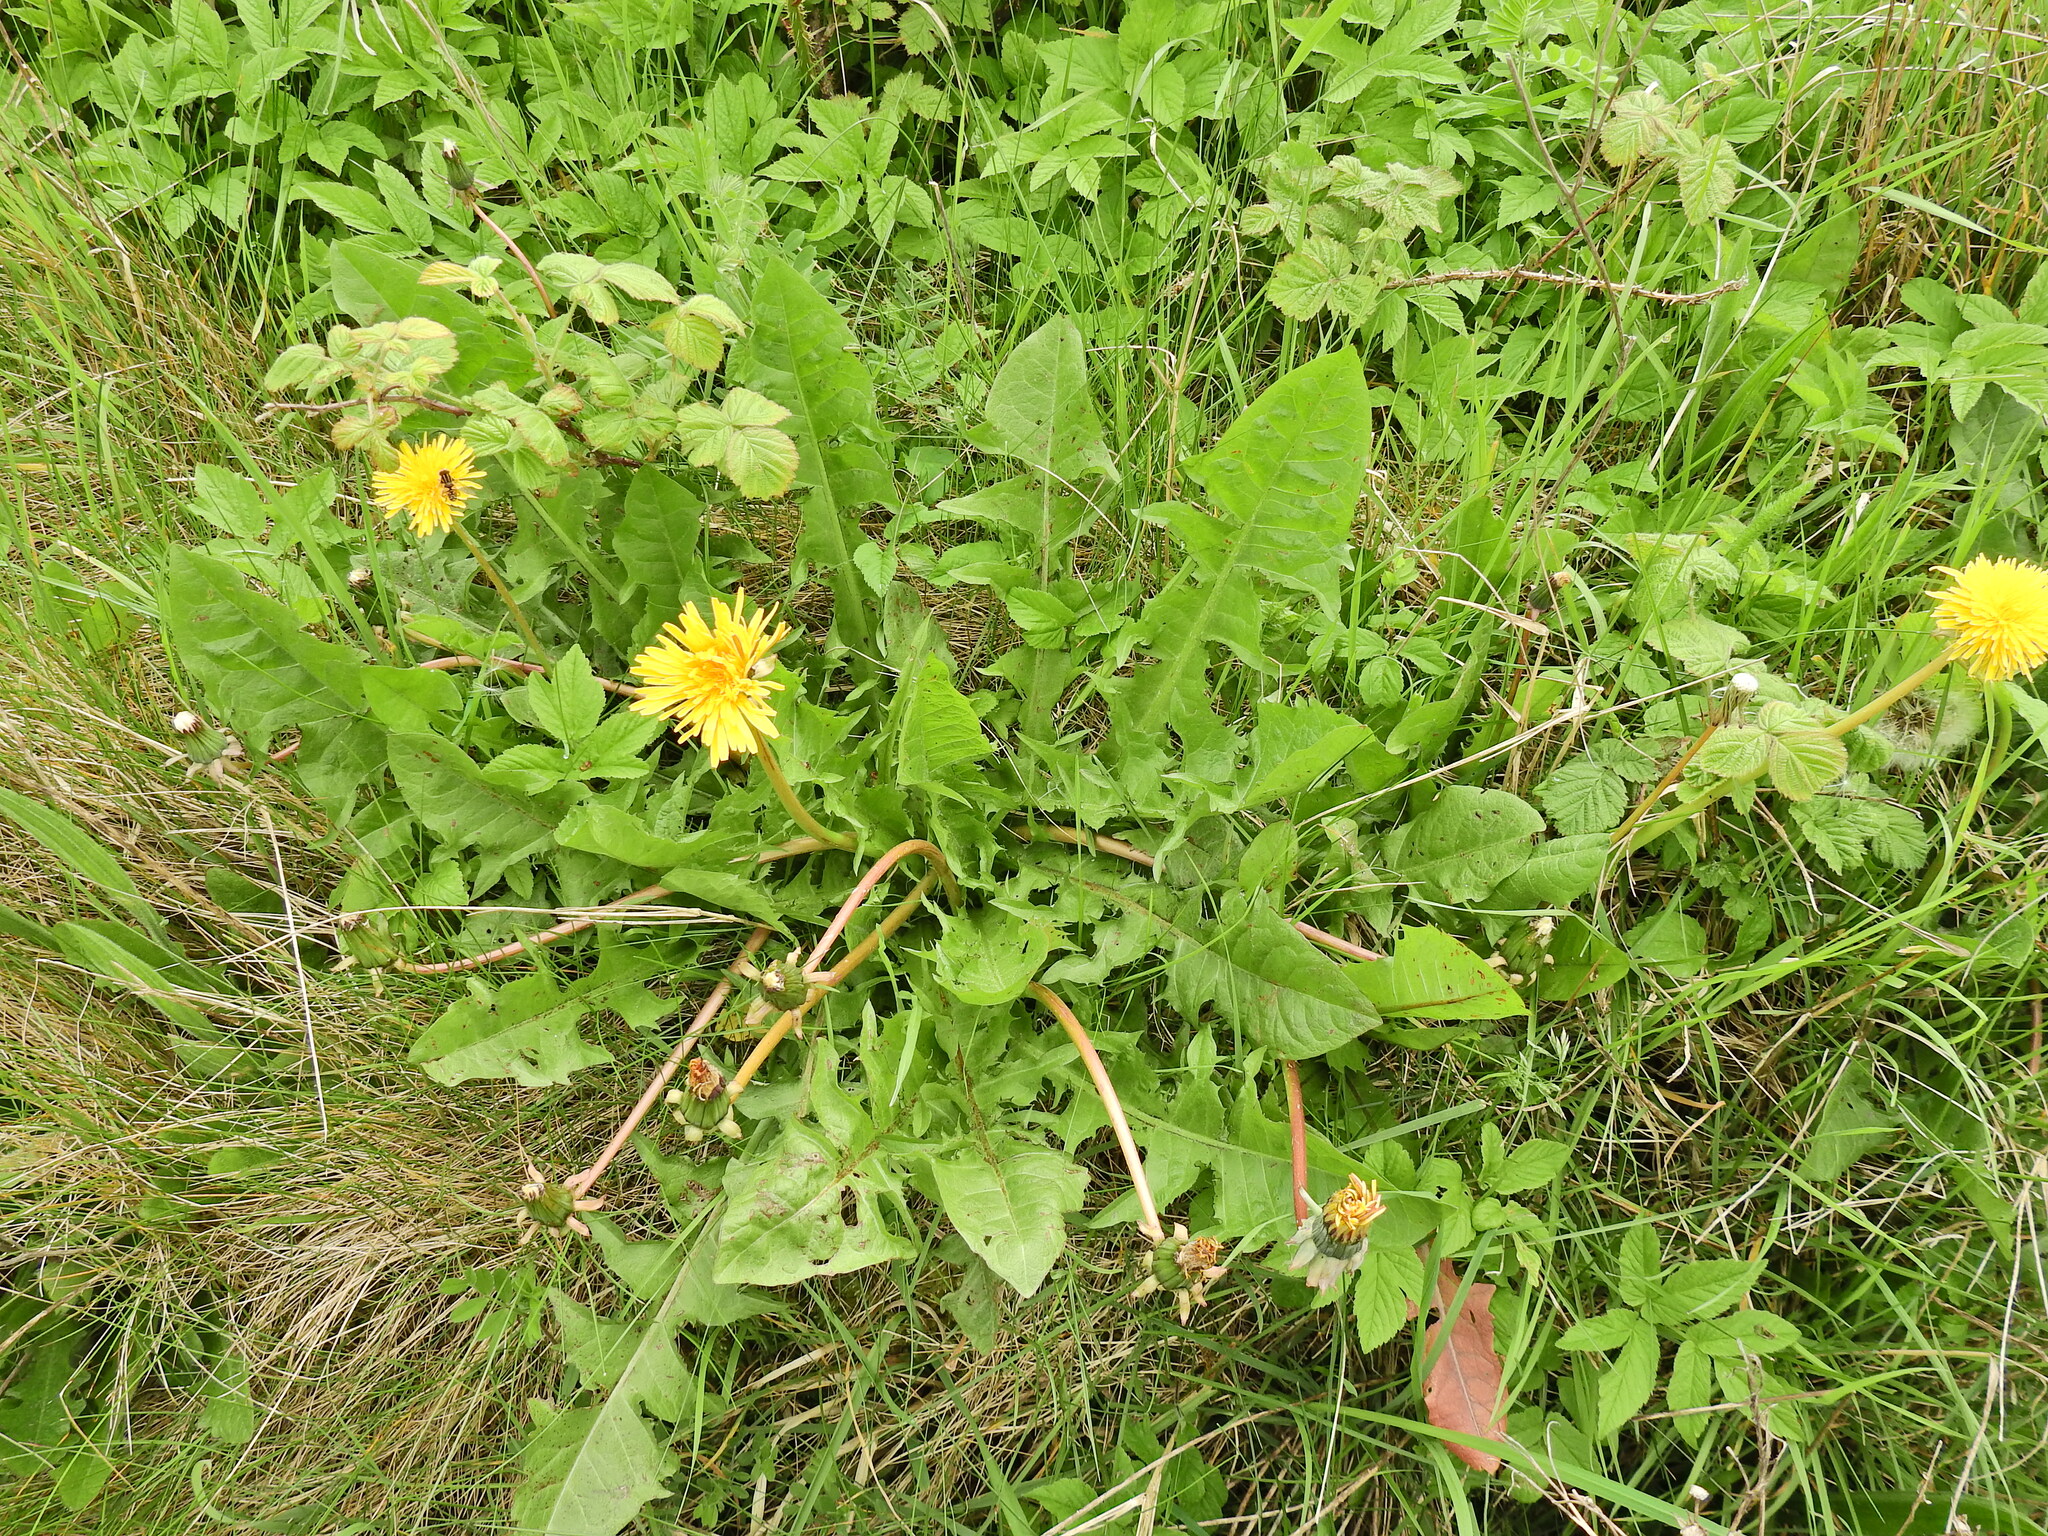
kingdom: Plantae
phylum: Tracheophyta
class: Magnoliopsida
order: Asterales
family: Asteraceae
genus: Taraxacum
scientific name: Taraxacum officinale
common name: Common dandelion
